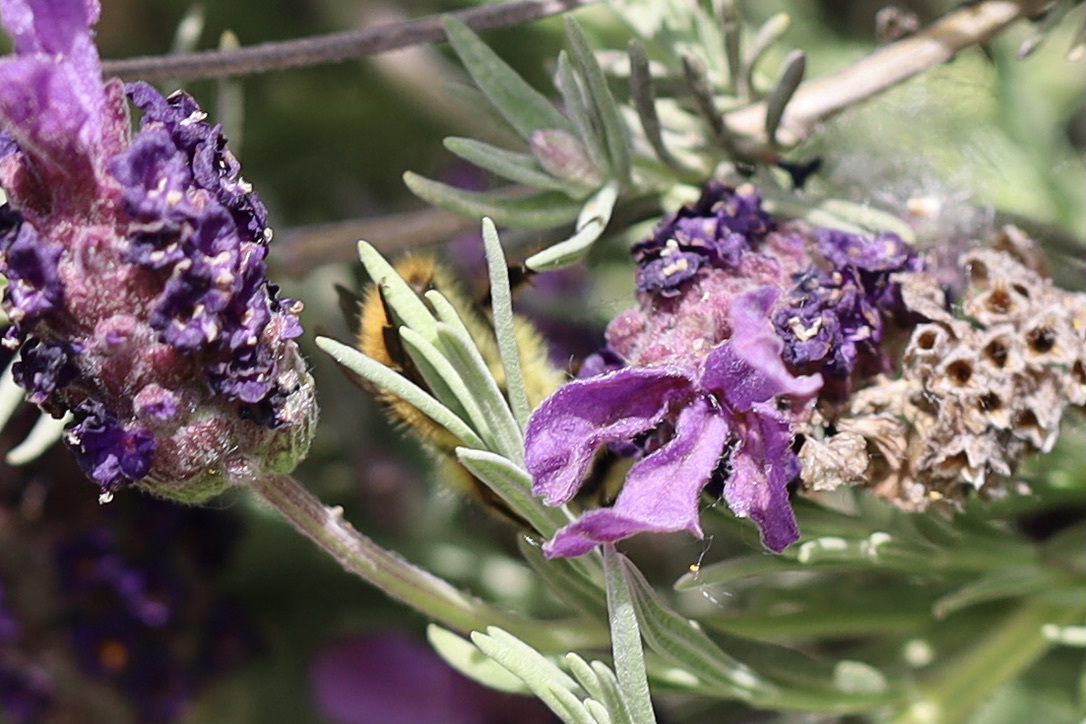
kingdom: Animalia
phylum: Arthropoda
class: Insecta
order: Hymenoptera
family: Apidae
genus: Bombus
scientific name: Bombus mixtus
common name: Fuzzy-horned bumble bee
